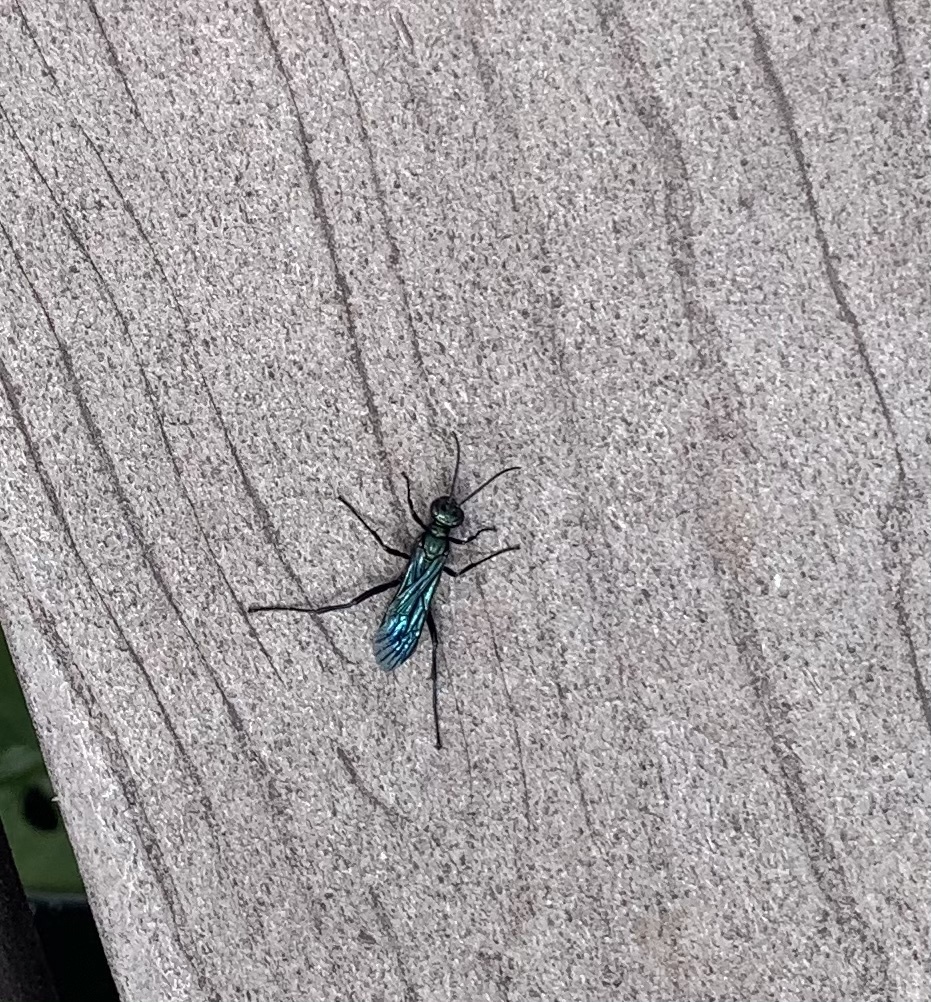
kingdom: Animalia
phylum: Arthropoda
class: Insecta
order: Hymenoptera
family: Sphecidae
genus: Chalybion
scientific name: Chalybion californicum
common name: Mud dauber
